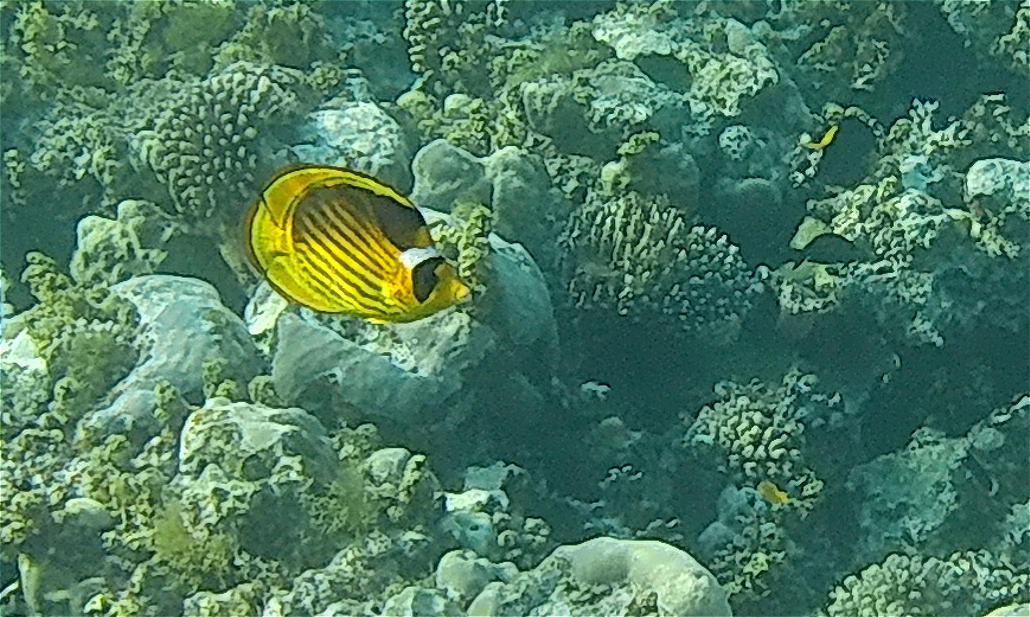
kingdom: Animalia
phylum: Chordata
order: Perciformes
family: Chaetodontidae
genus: Chaetodon
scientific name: Chaetodon fasciatus
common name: Diagonal butterflyfish
